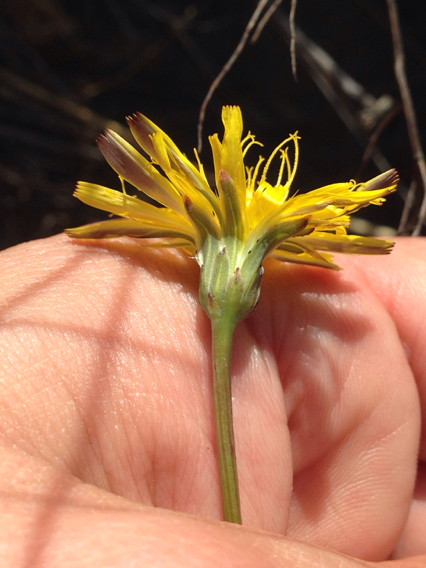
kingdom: Plantae
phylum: Tracheophyta
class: Magnoliopsida
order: Asterales
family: Asteraceae
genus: Hypochaeris
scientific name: Hypochaeris radicata
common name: Flatweed
